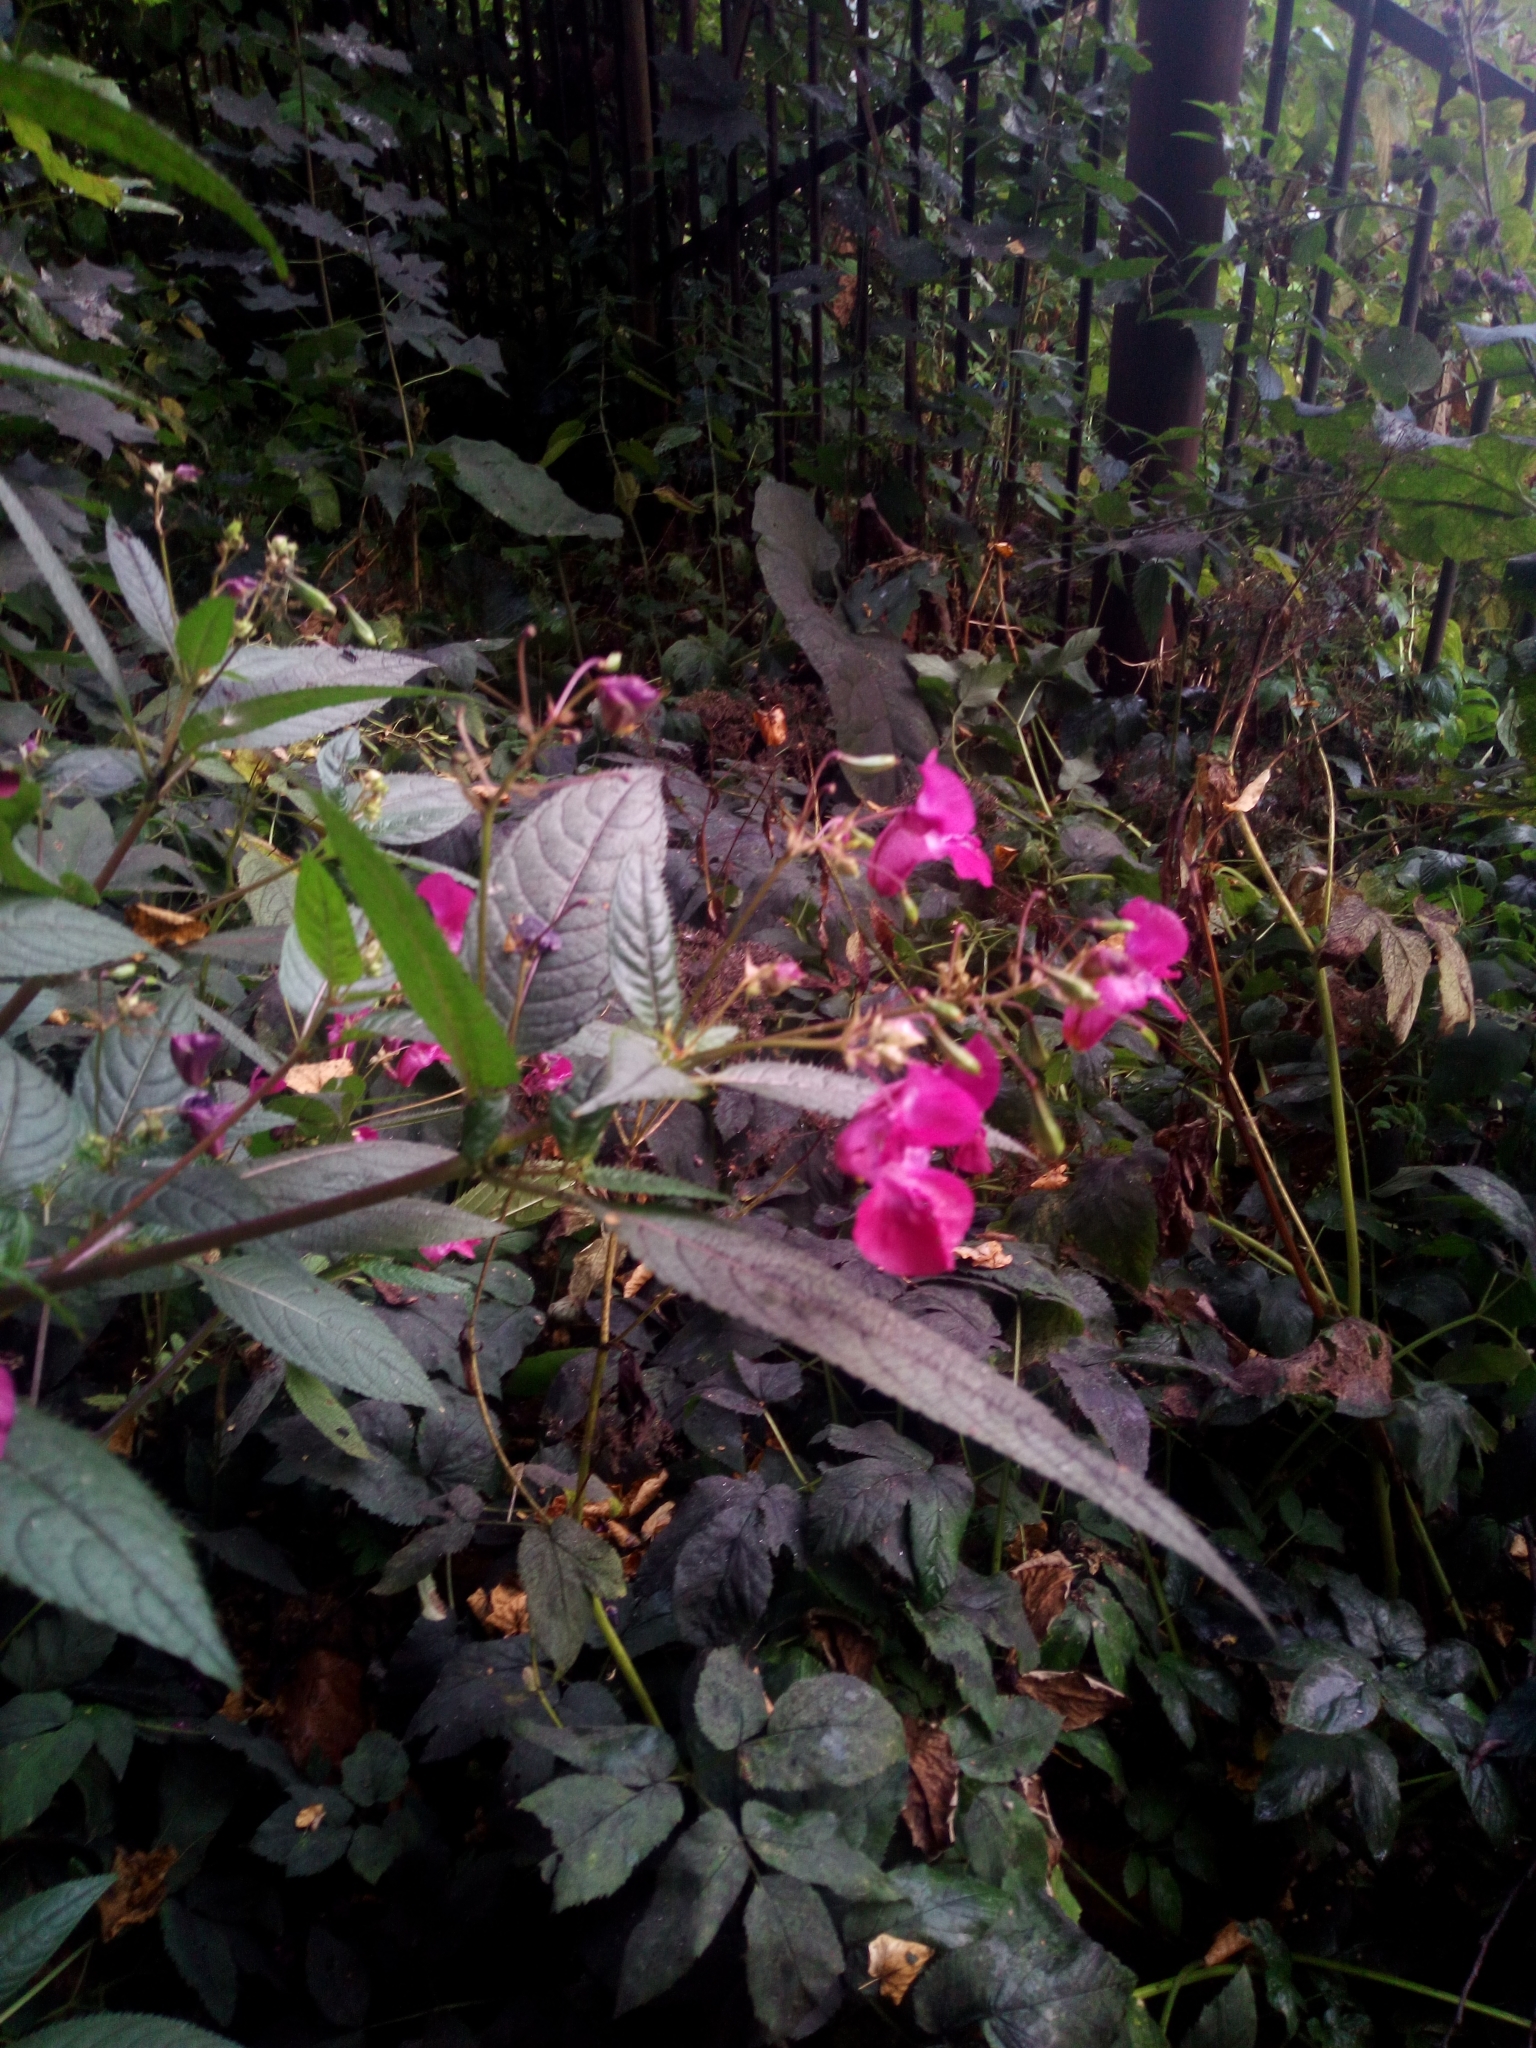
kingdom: Plantae
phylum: Tracheophyta
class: Magnoliopsida
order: Ericales
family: Balsaminaceae
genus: Impatiens
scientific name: Impatiens glandulifera
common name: Himalayan balsam
